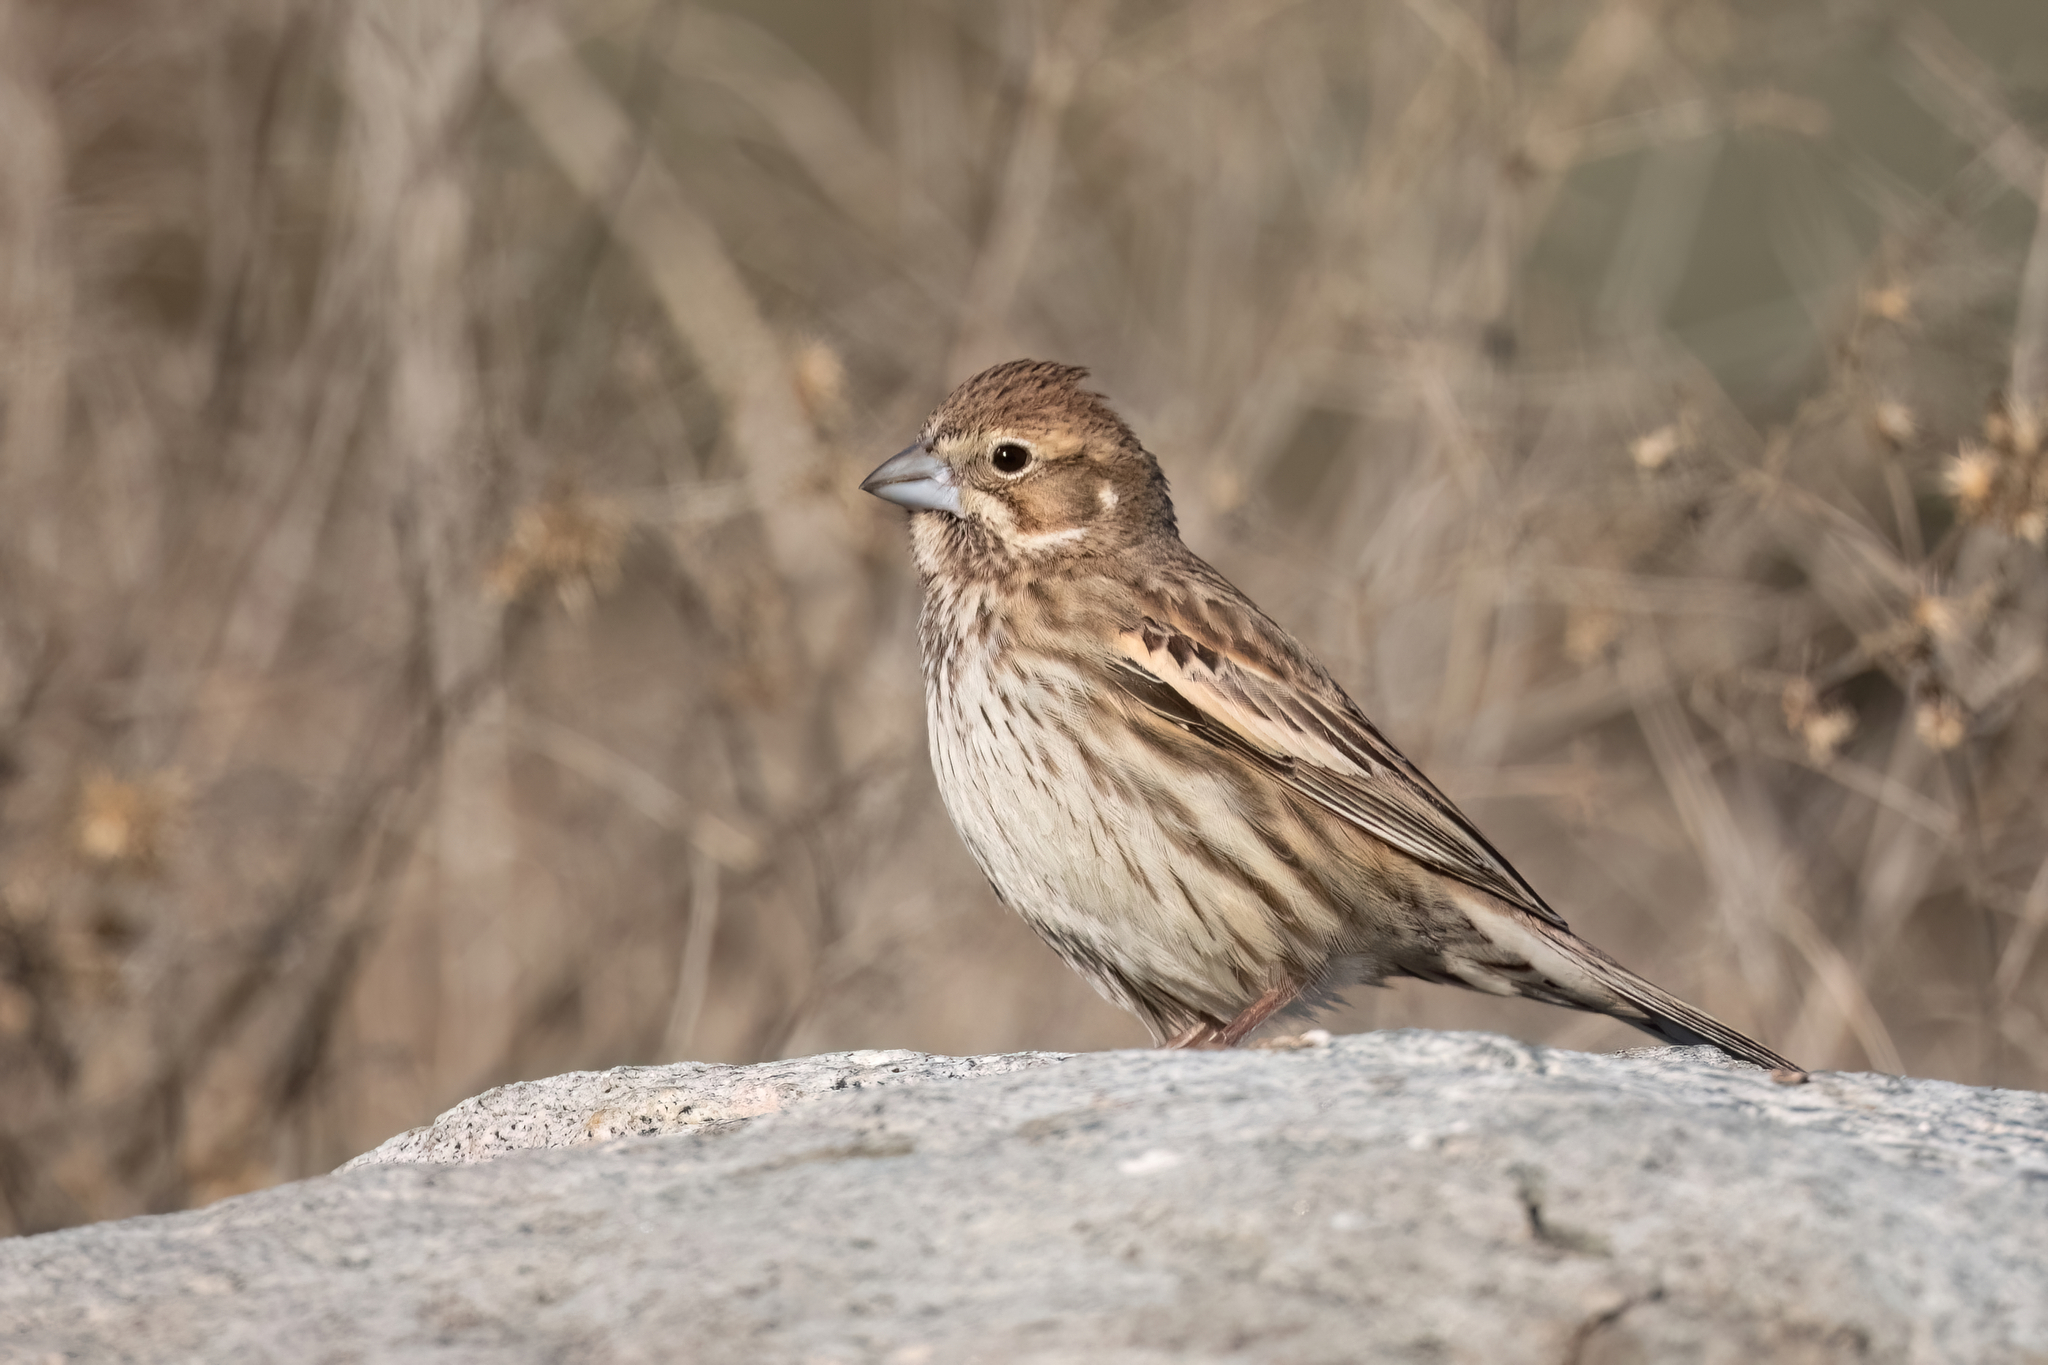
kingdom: Animalia
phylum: Chordata
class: Aves
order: Passeriformes
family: Passerellidae
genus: Calamospiza
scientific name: Calamospiza melanocorys
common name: Lark bunting
